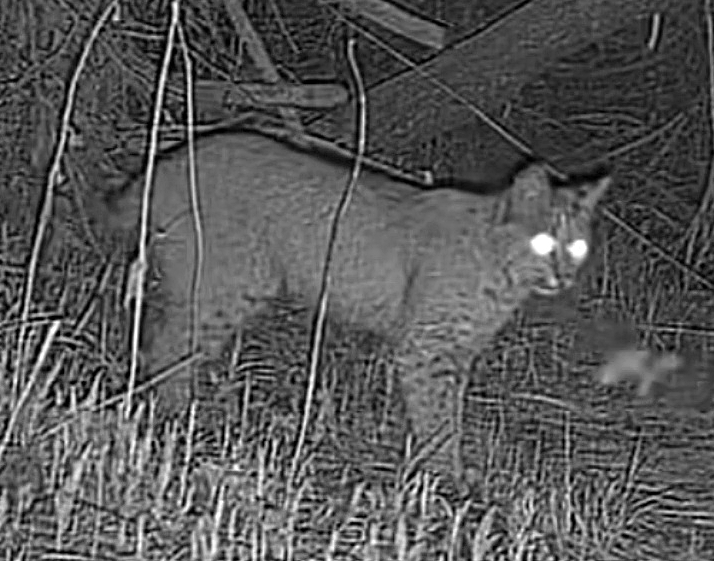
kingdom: Animalia
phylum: Chordata
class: Mammalia
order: Carnivora
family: Felidae
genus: Lynx
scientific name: Lynx rufus
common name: Bobcat
